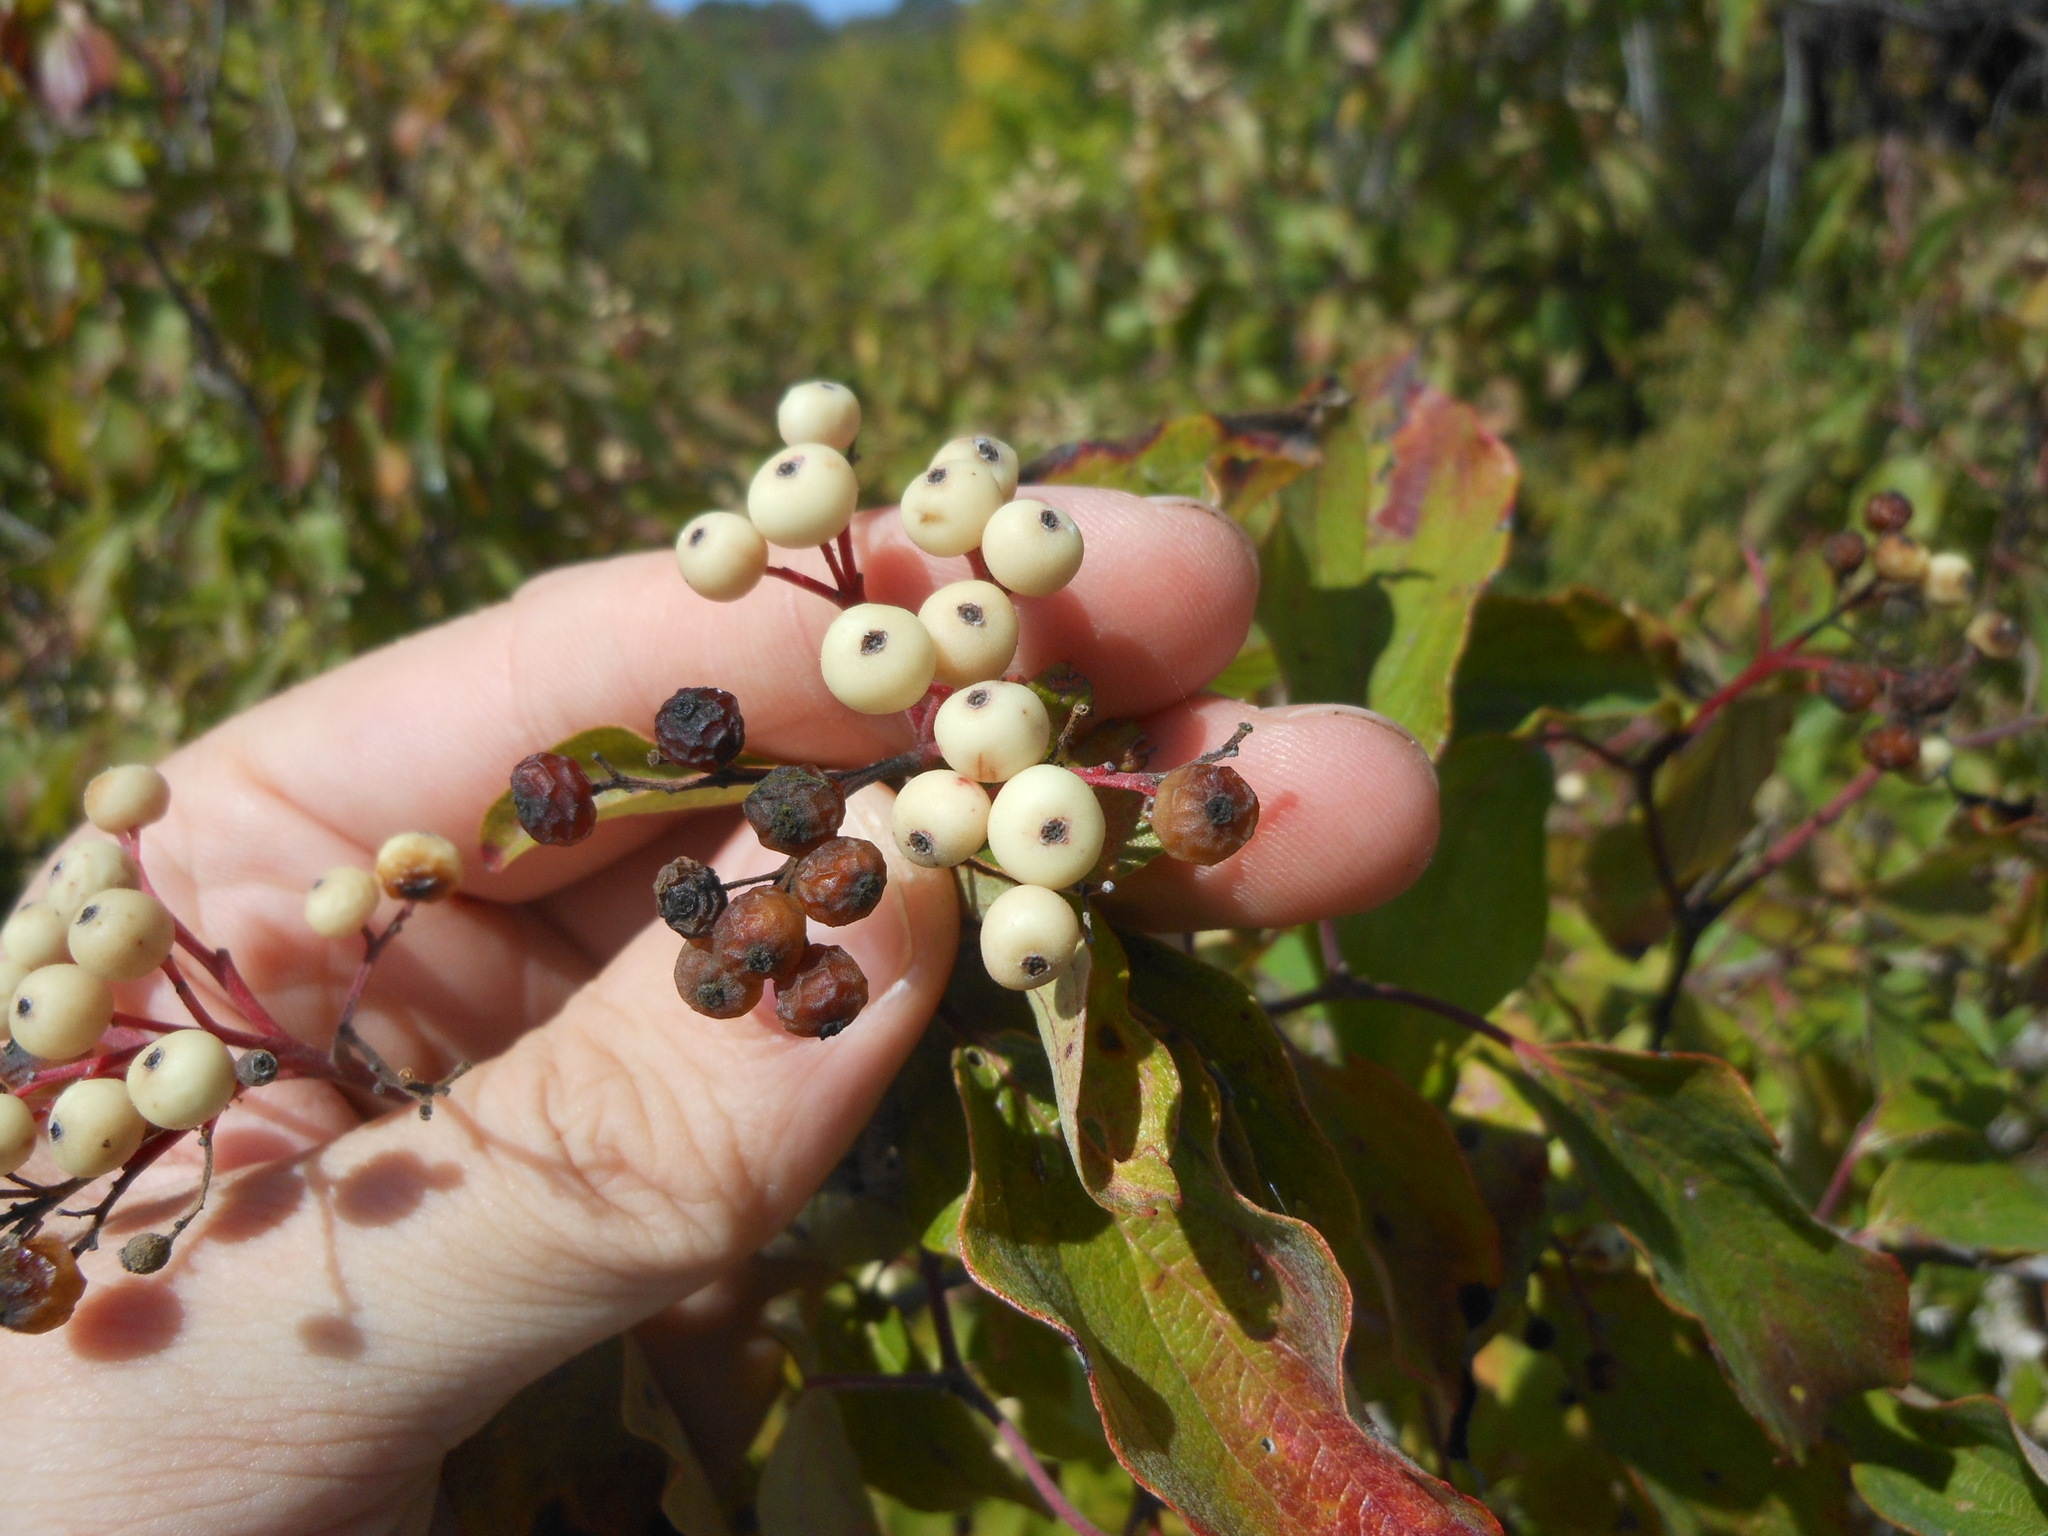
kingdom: Plantae
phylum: Tracheophyta
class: Magnoliopsida
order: Cornales
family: Cornaceae
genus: Cornus
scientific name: Cornus drummondii
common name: Rough-leaf dogwood
